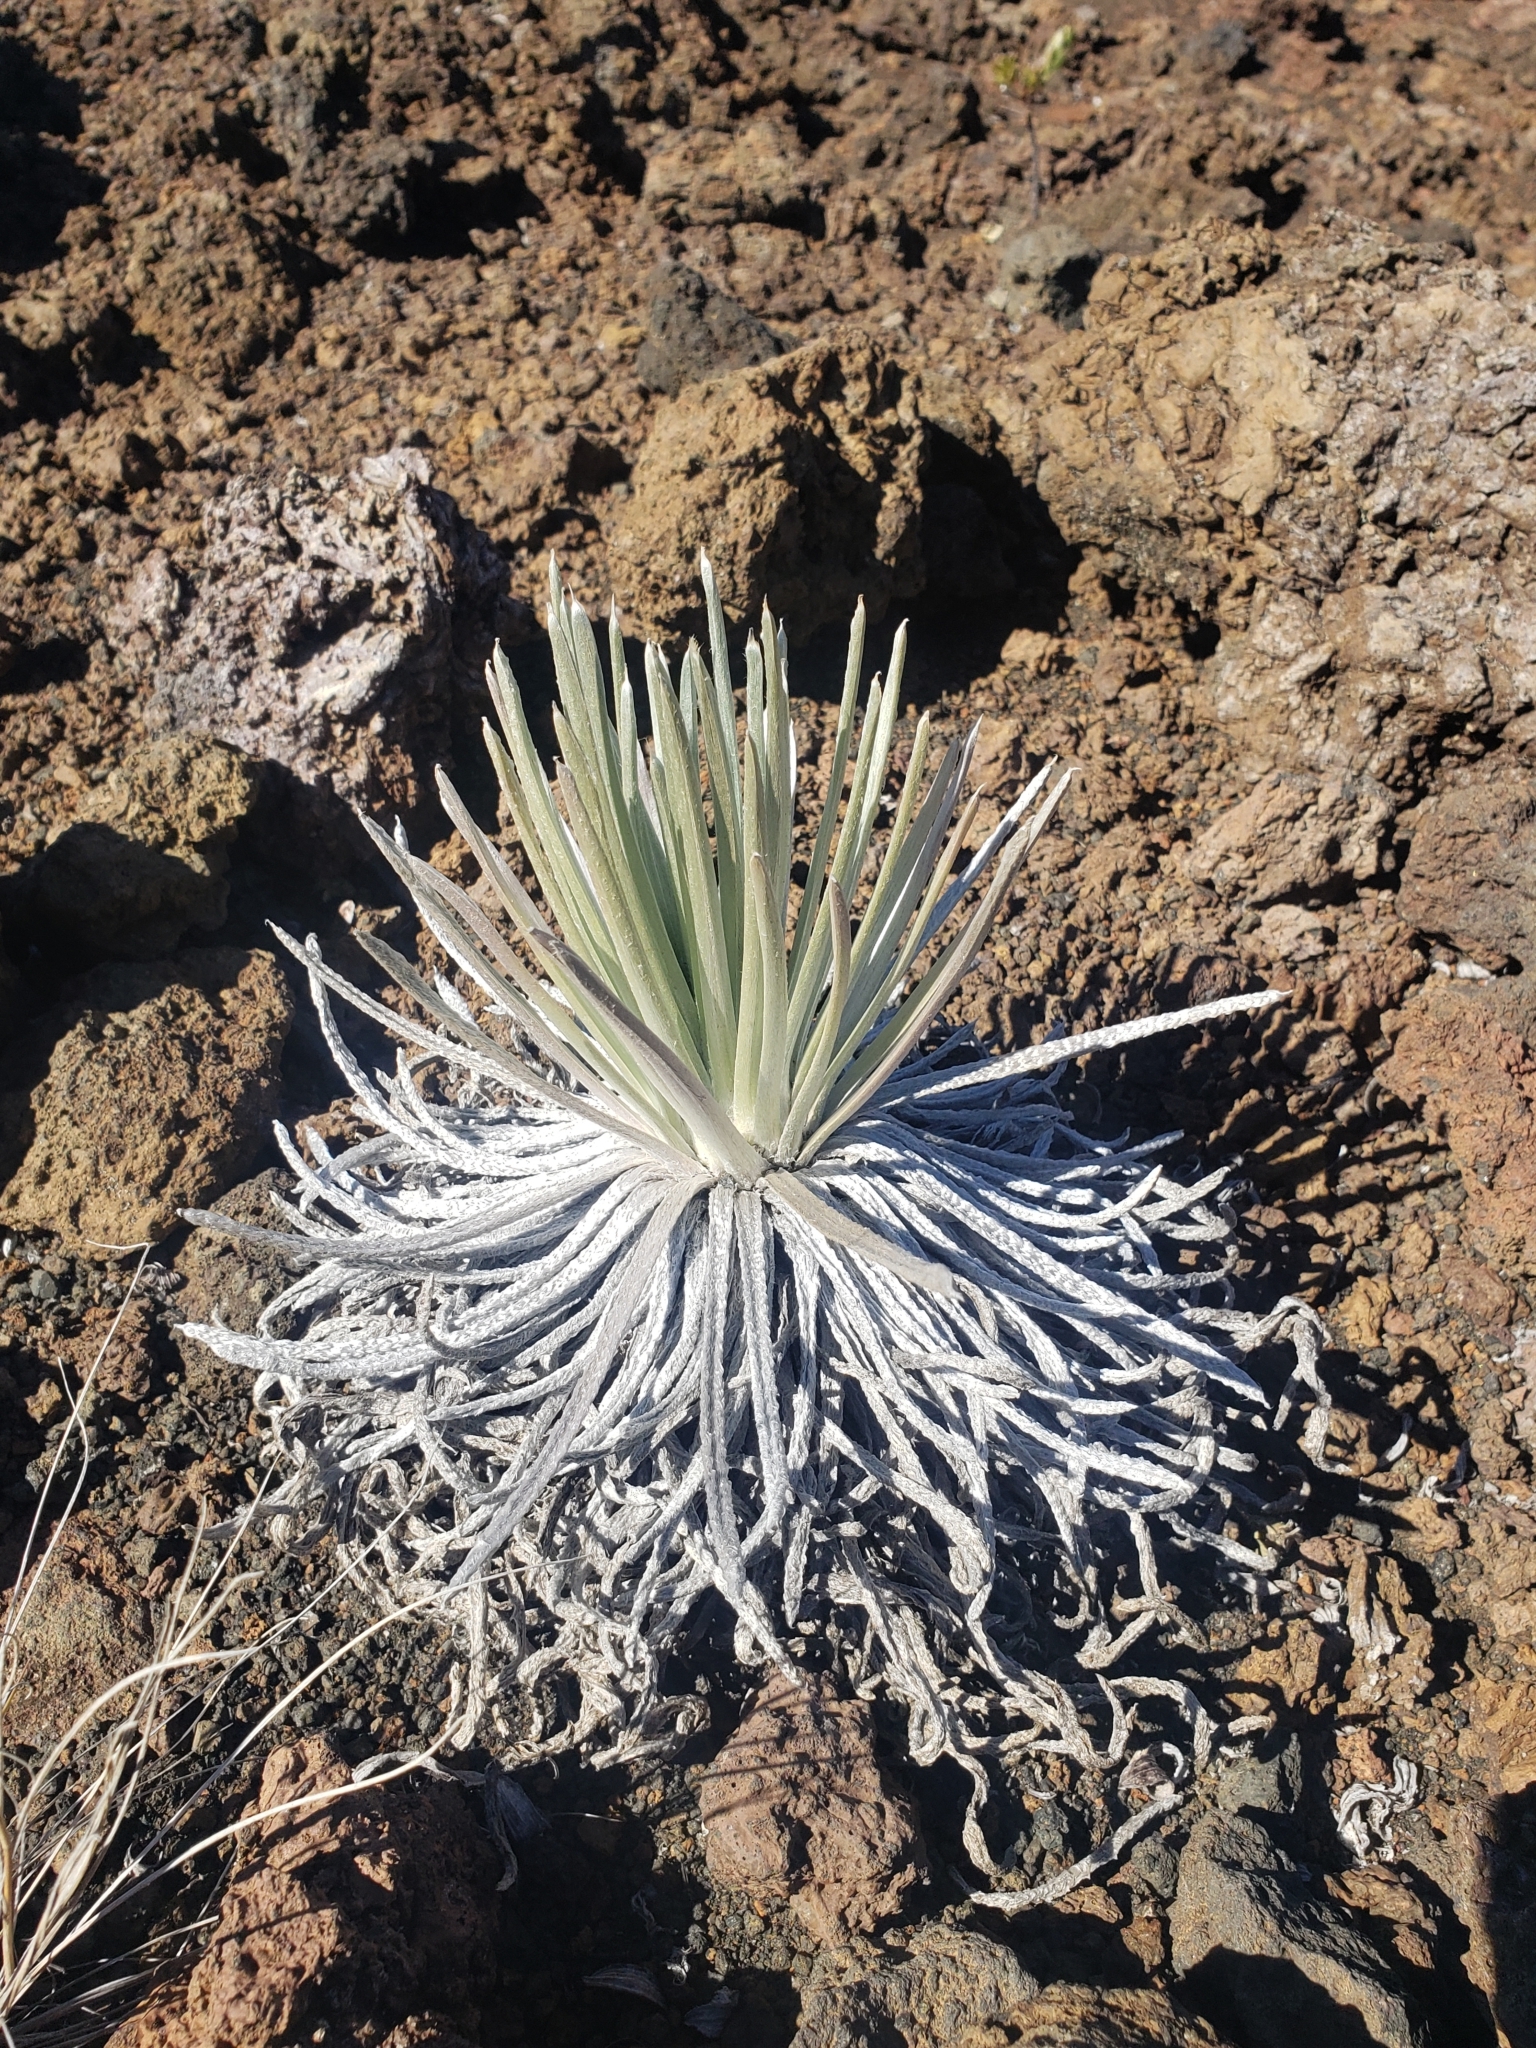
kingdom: Plantae
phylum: Tracheophyta
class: Magnoliopsida
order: Asterales
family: Asteraceae
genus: Argyroxiphium
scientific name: Argyroxiphium sandwicense
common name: Silversword
